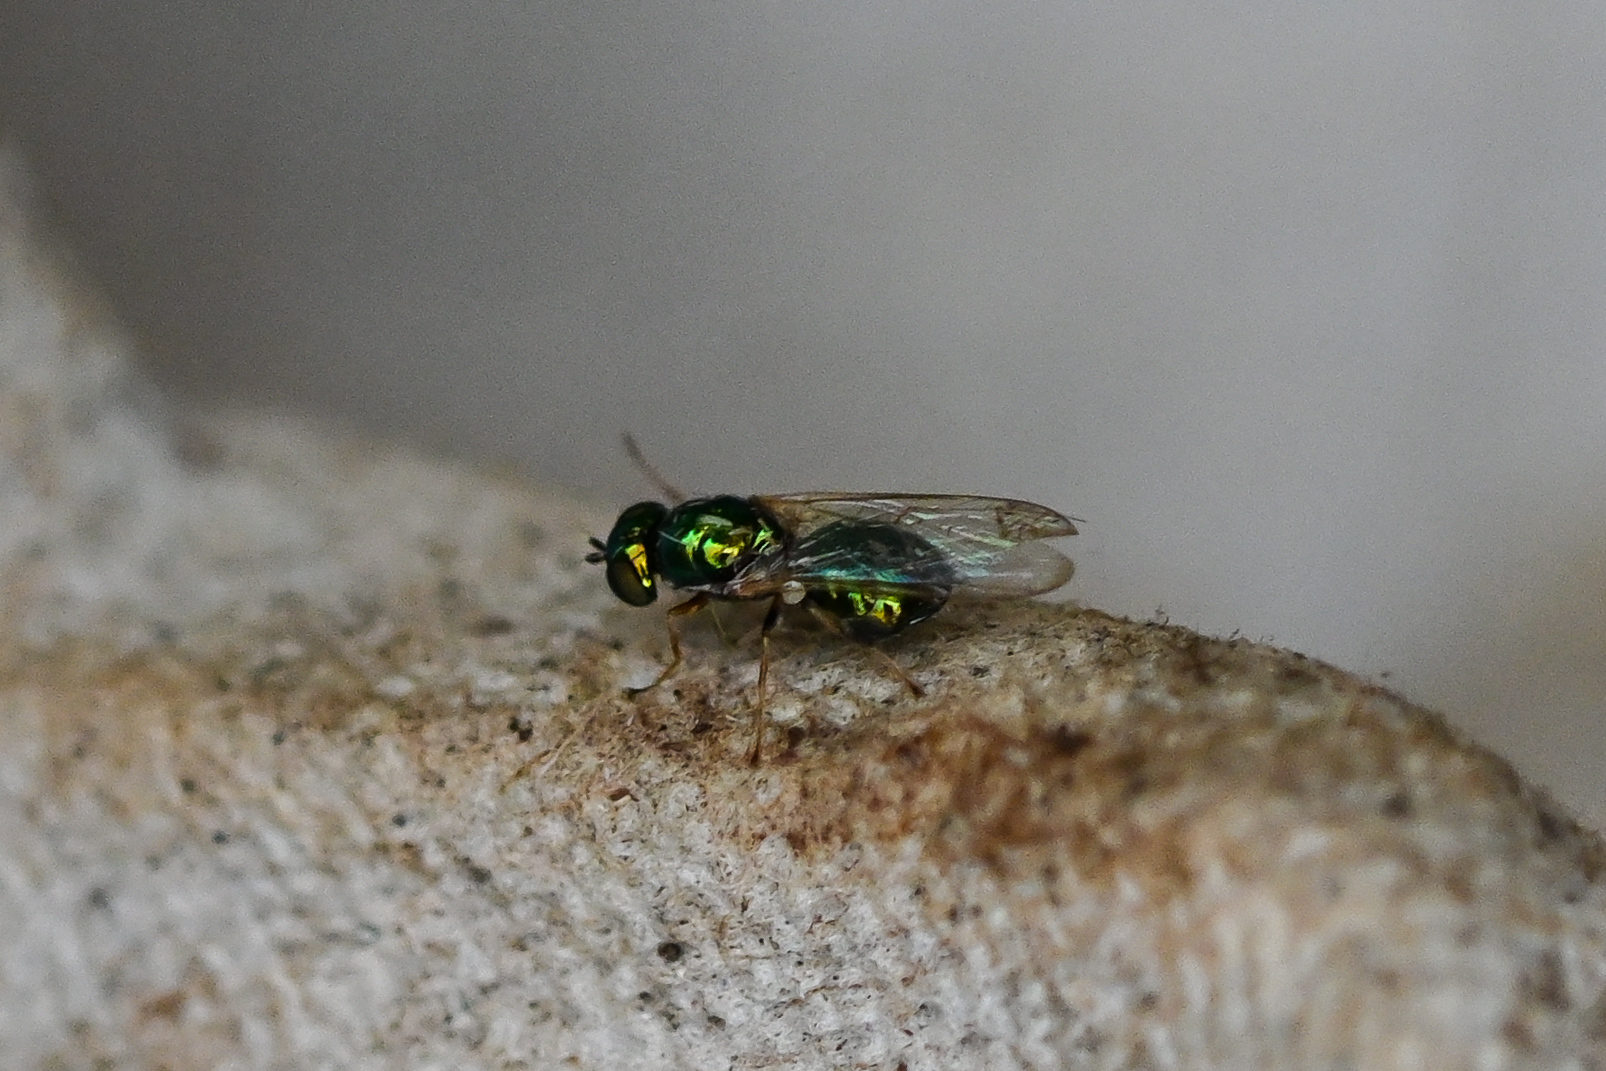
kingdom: Animalia
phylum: Arthropoda
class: Insecta
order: Diptera
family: Stratiomyidae
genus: Microchrysa
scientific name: Microchrysa polita
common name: Black-horned gem
